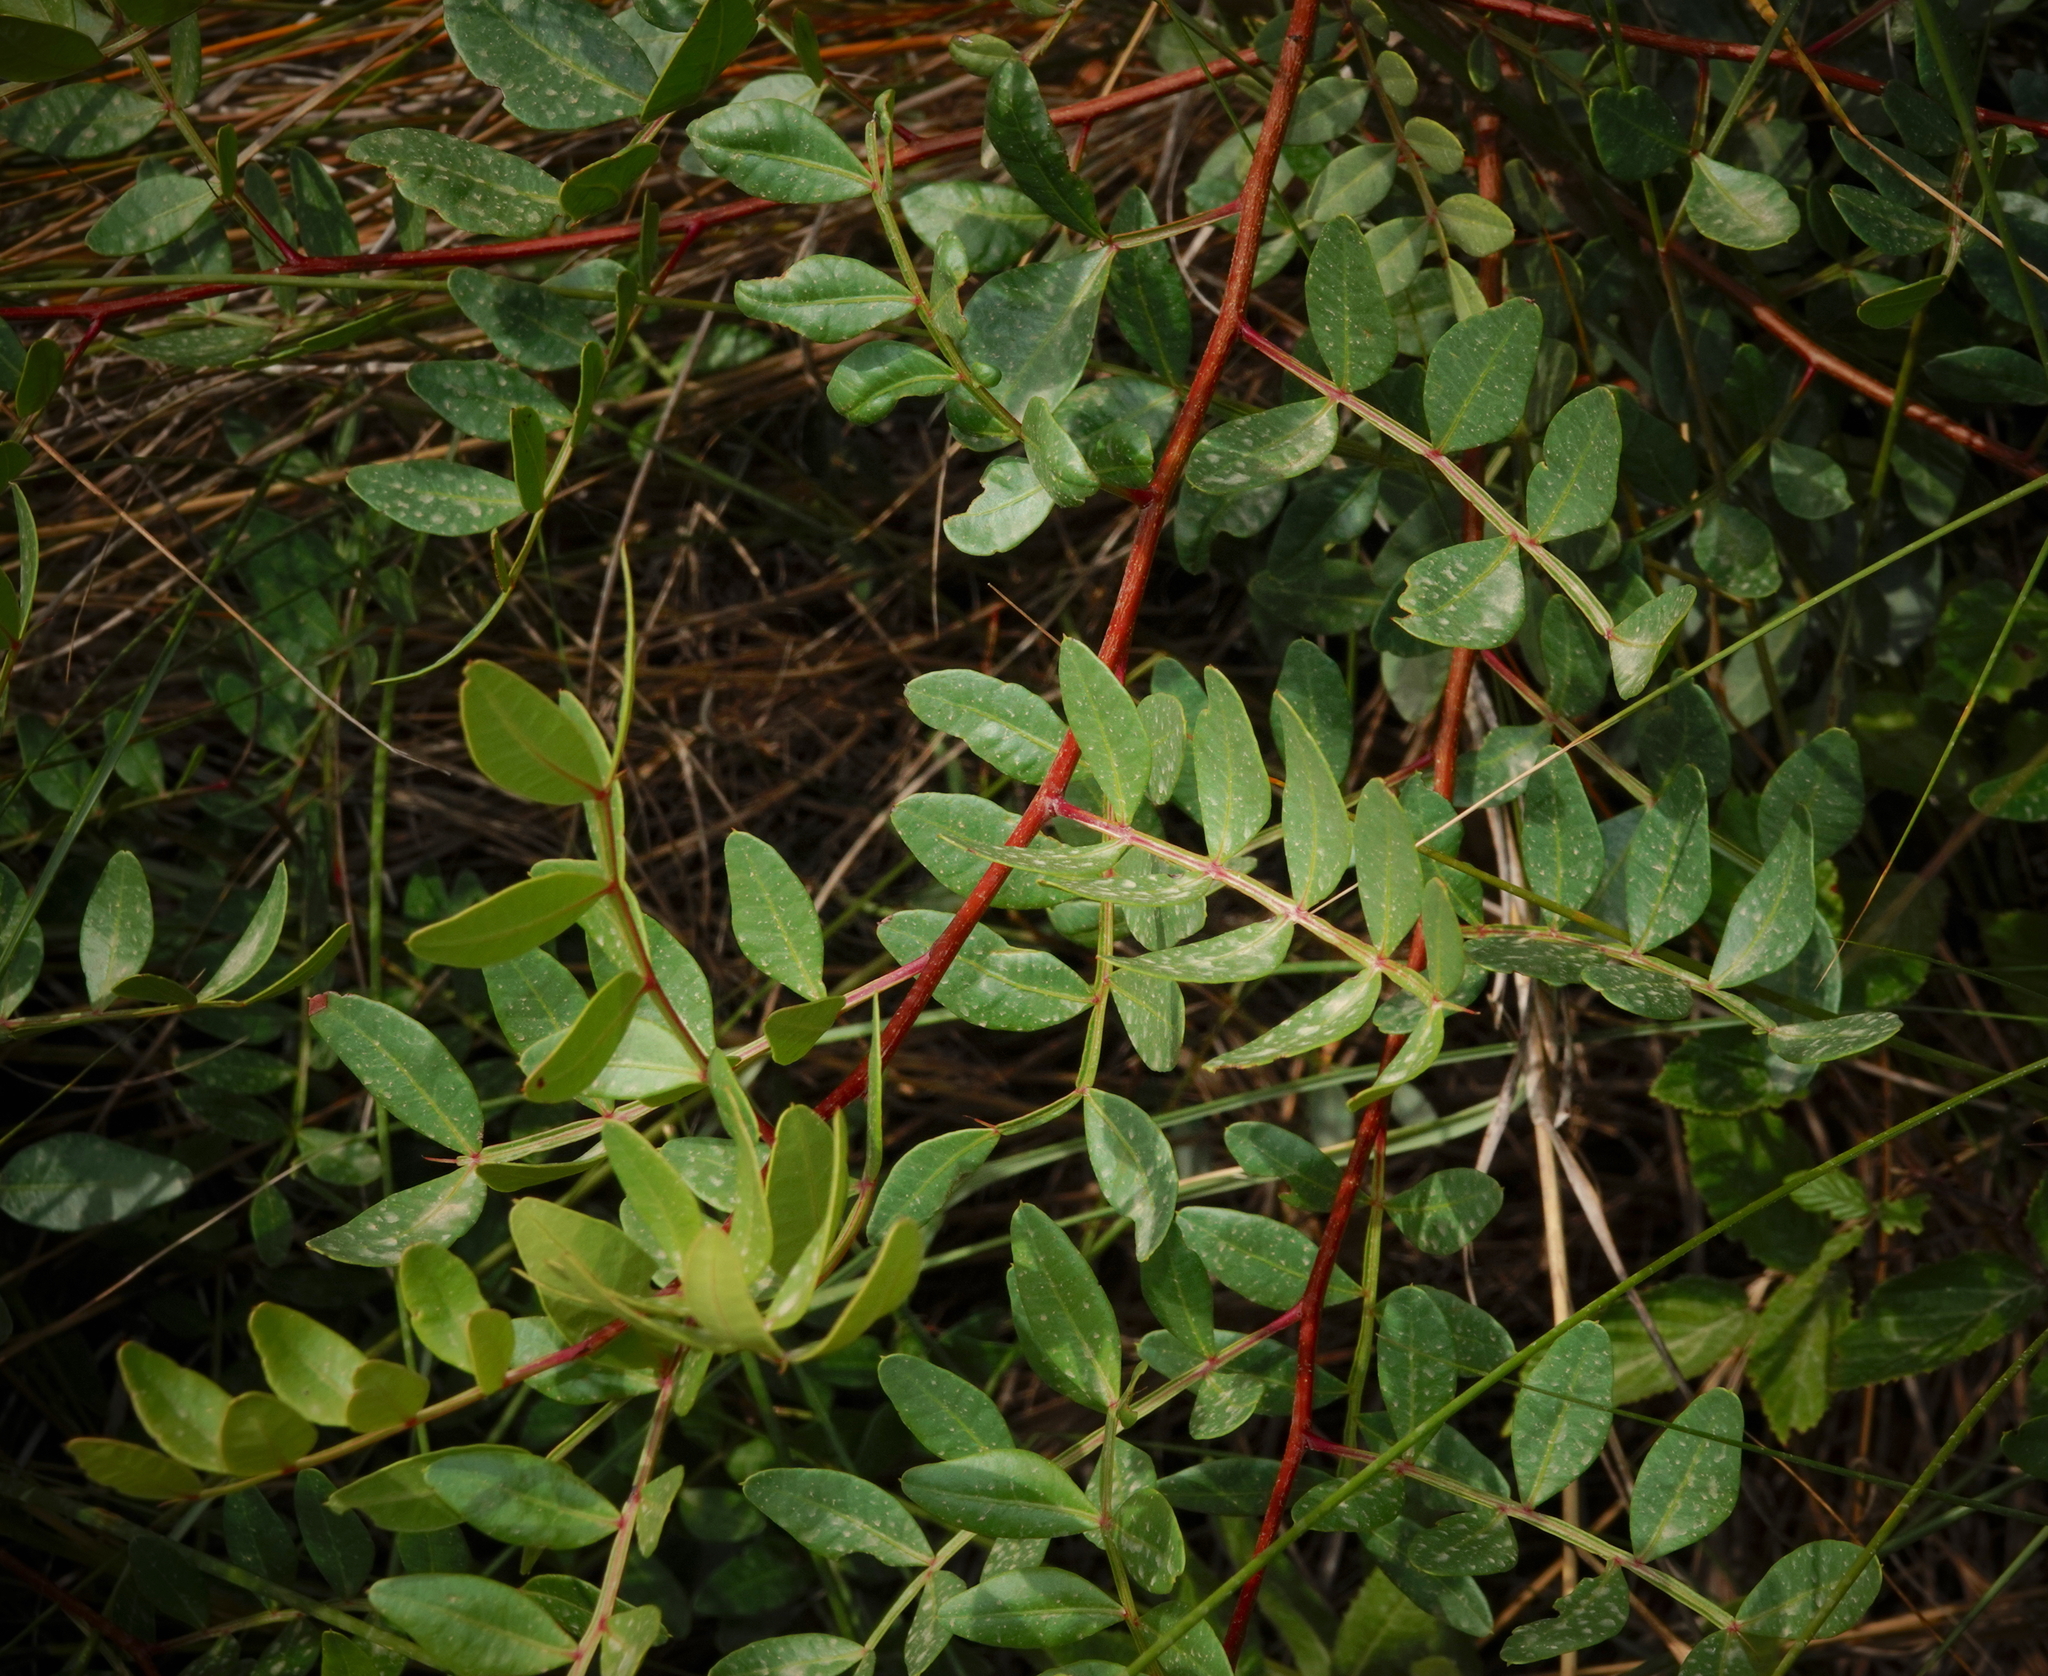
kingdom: Plantae
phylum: Tracheophyta
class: Magnoliopsida
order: Sapindales
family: Anacardiaceae
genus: Pistacia
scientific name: Pistacia lentiscus
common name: Lentisk
